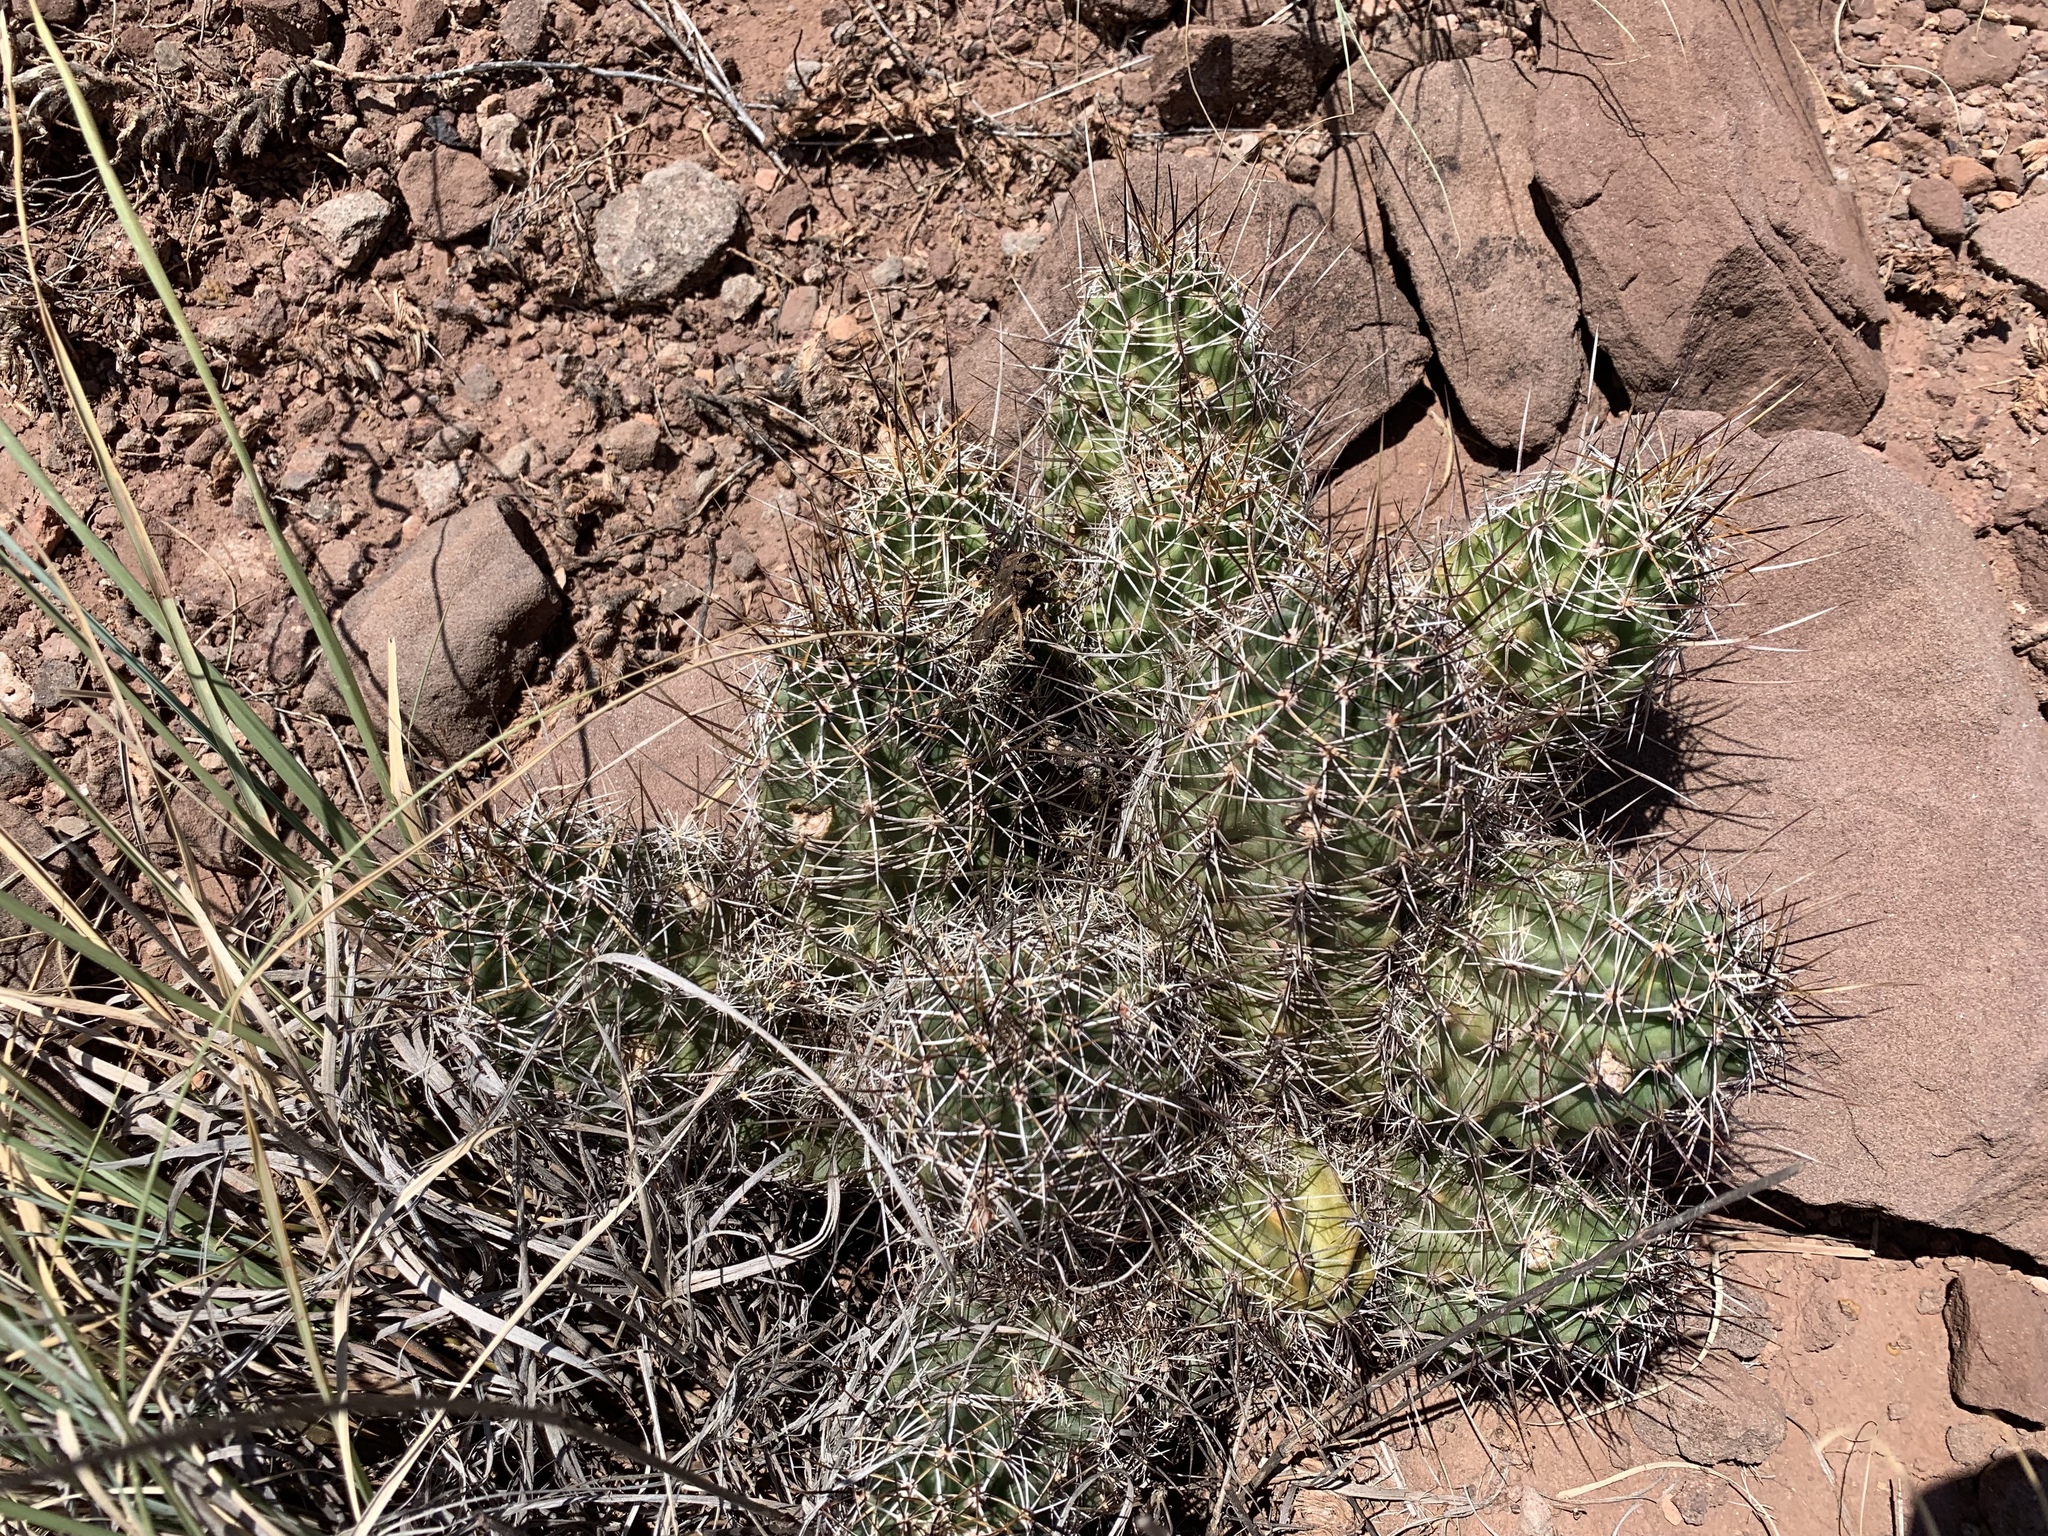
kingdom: Plantae
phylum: Tracheophyta
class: Magnoliopsida
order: Caryophyllales
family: Cactaceae
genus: Echinocereus
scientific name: Echinocereus fendleri
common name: Fendler's hedgehog cactus
